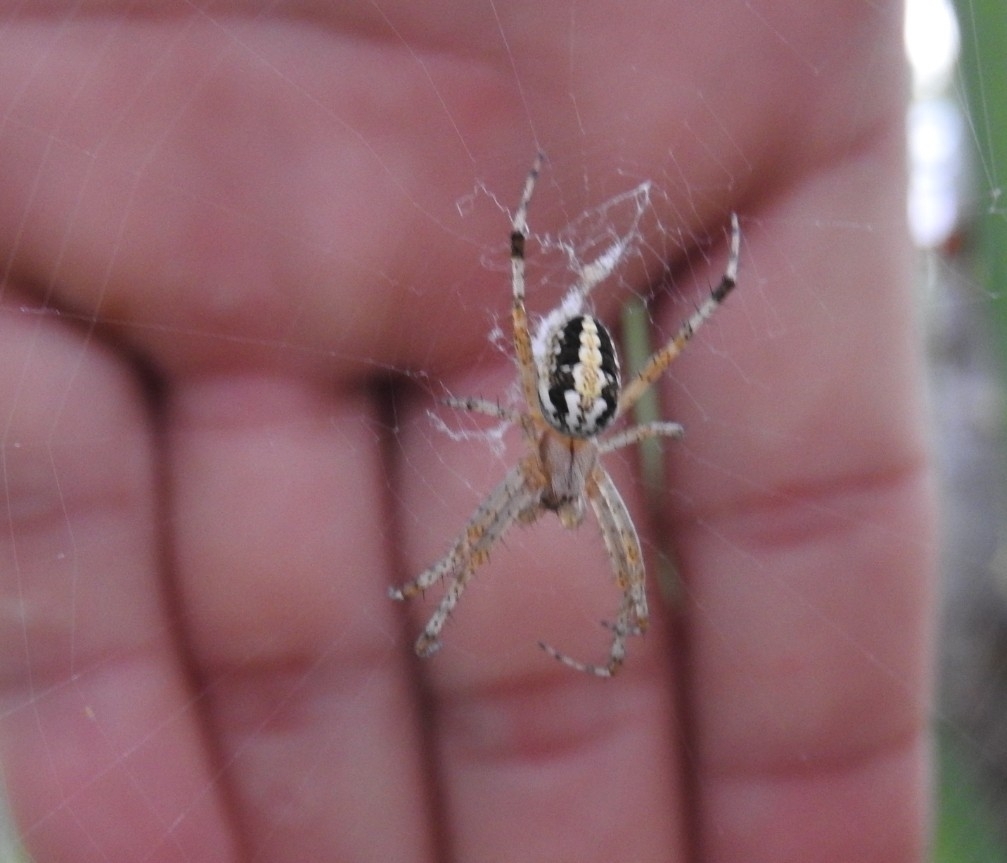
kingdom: Animalia
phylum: Arthropoda
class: Arachnida
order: Araneae
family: Araneidae
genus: Neoscona
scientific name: Neoscona oaxacensis
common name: Orb weavers
